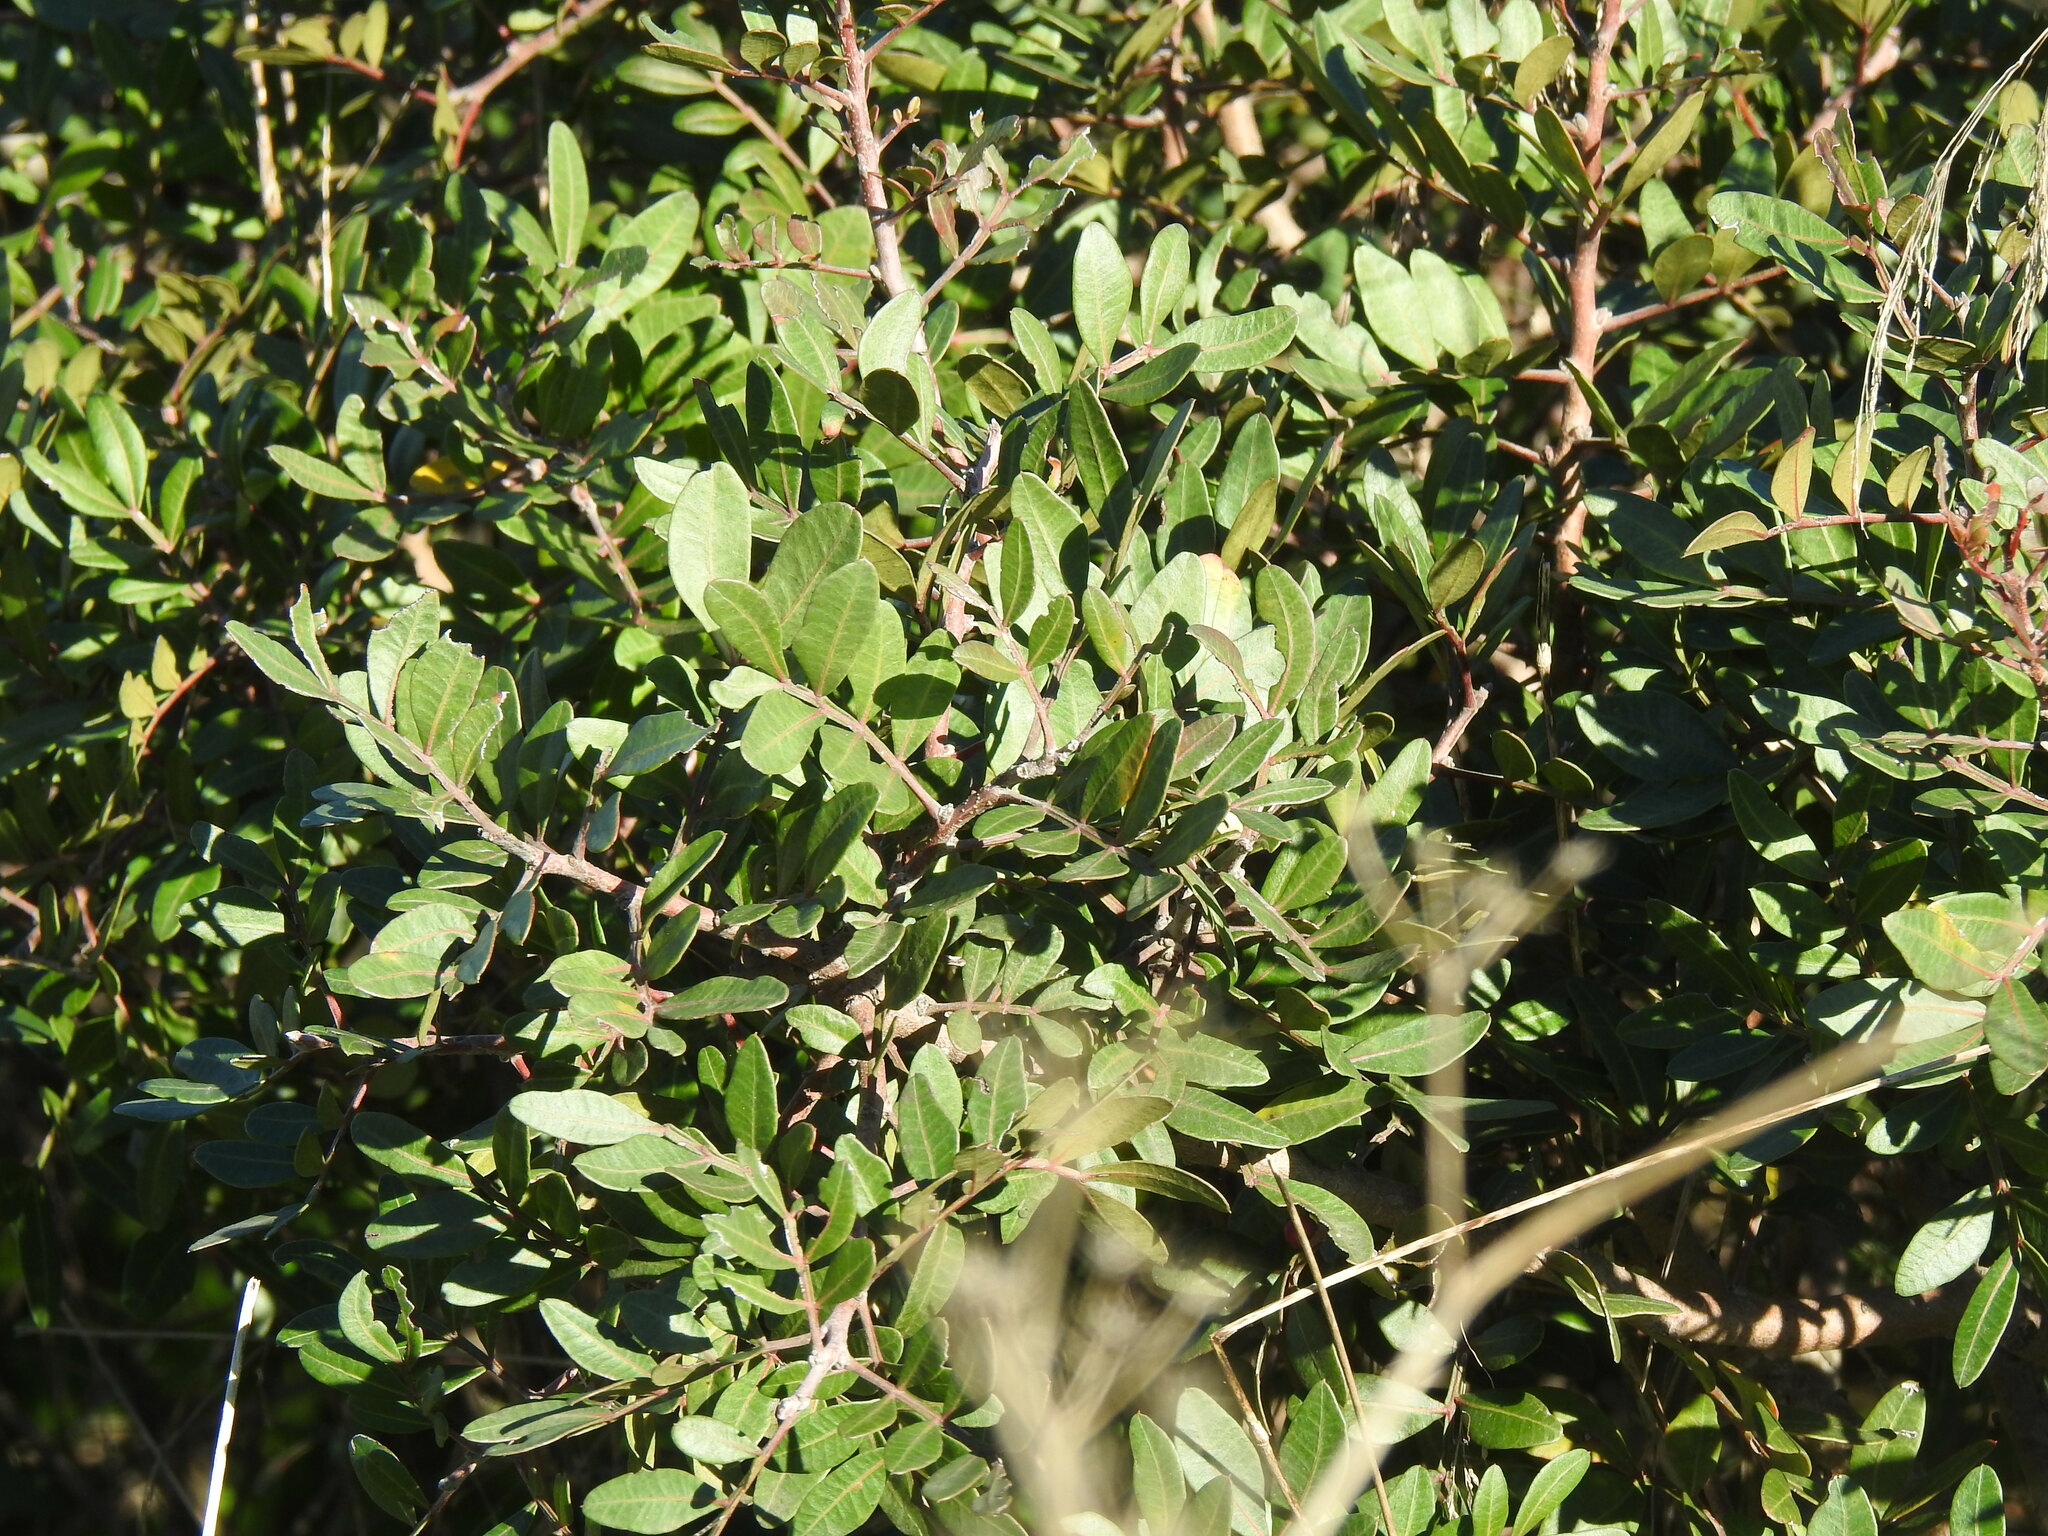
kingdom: Plantae
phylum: Tracheophyta
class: Magnoliopsida
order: Sapindales
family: Anacardiaceae
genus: Pistacia
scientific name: Pistacia lentiscus
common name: Lentisk
